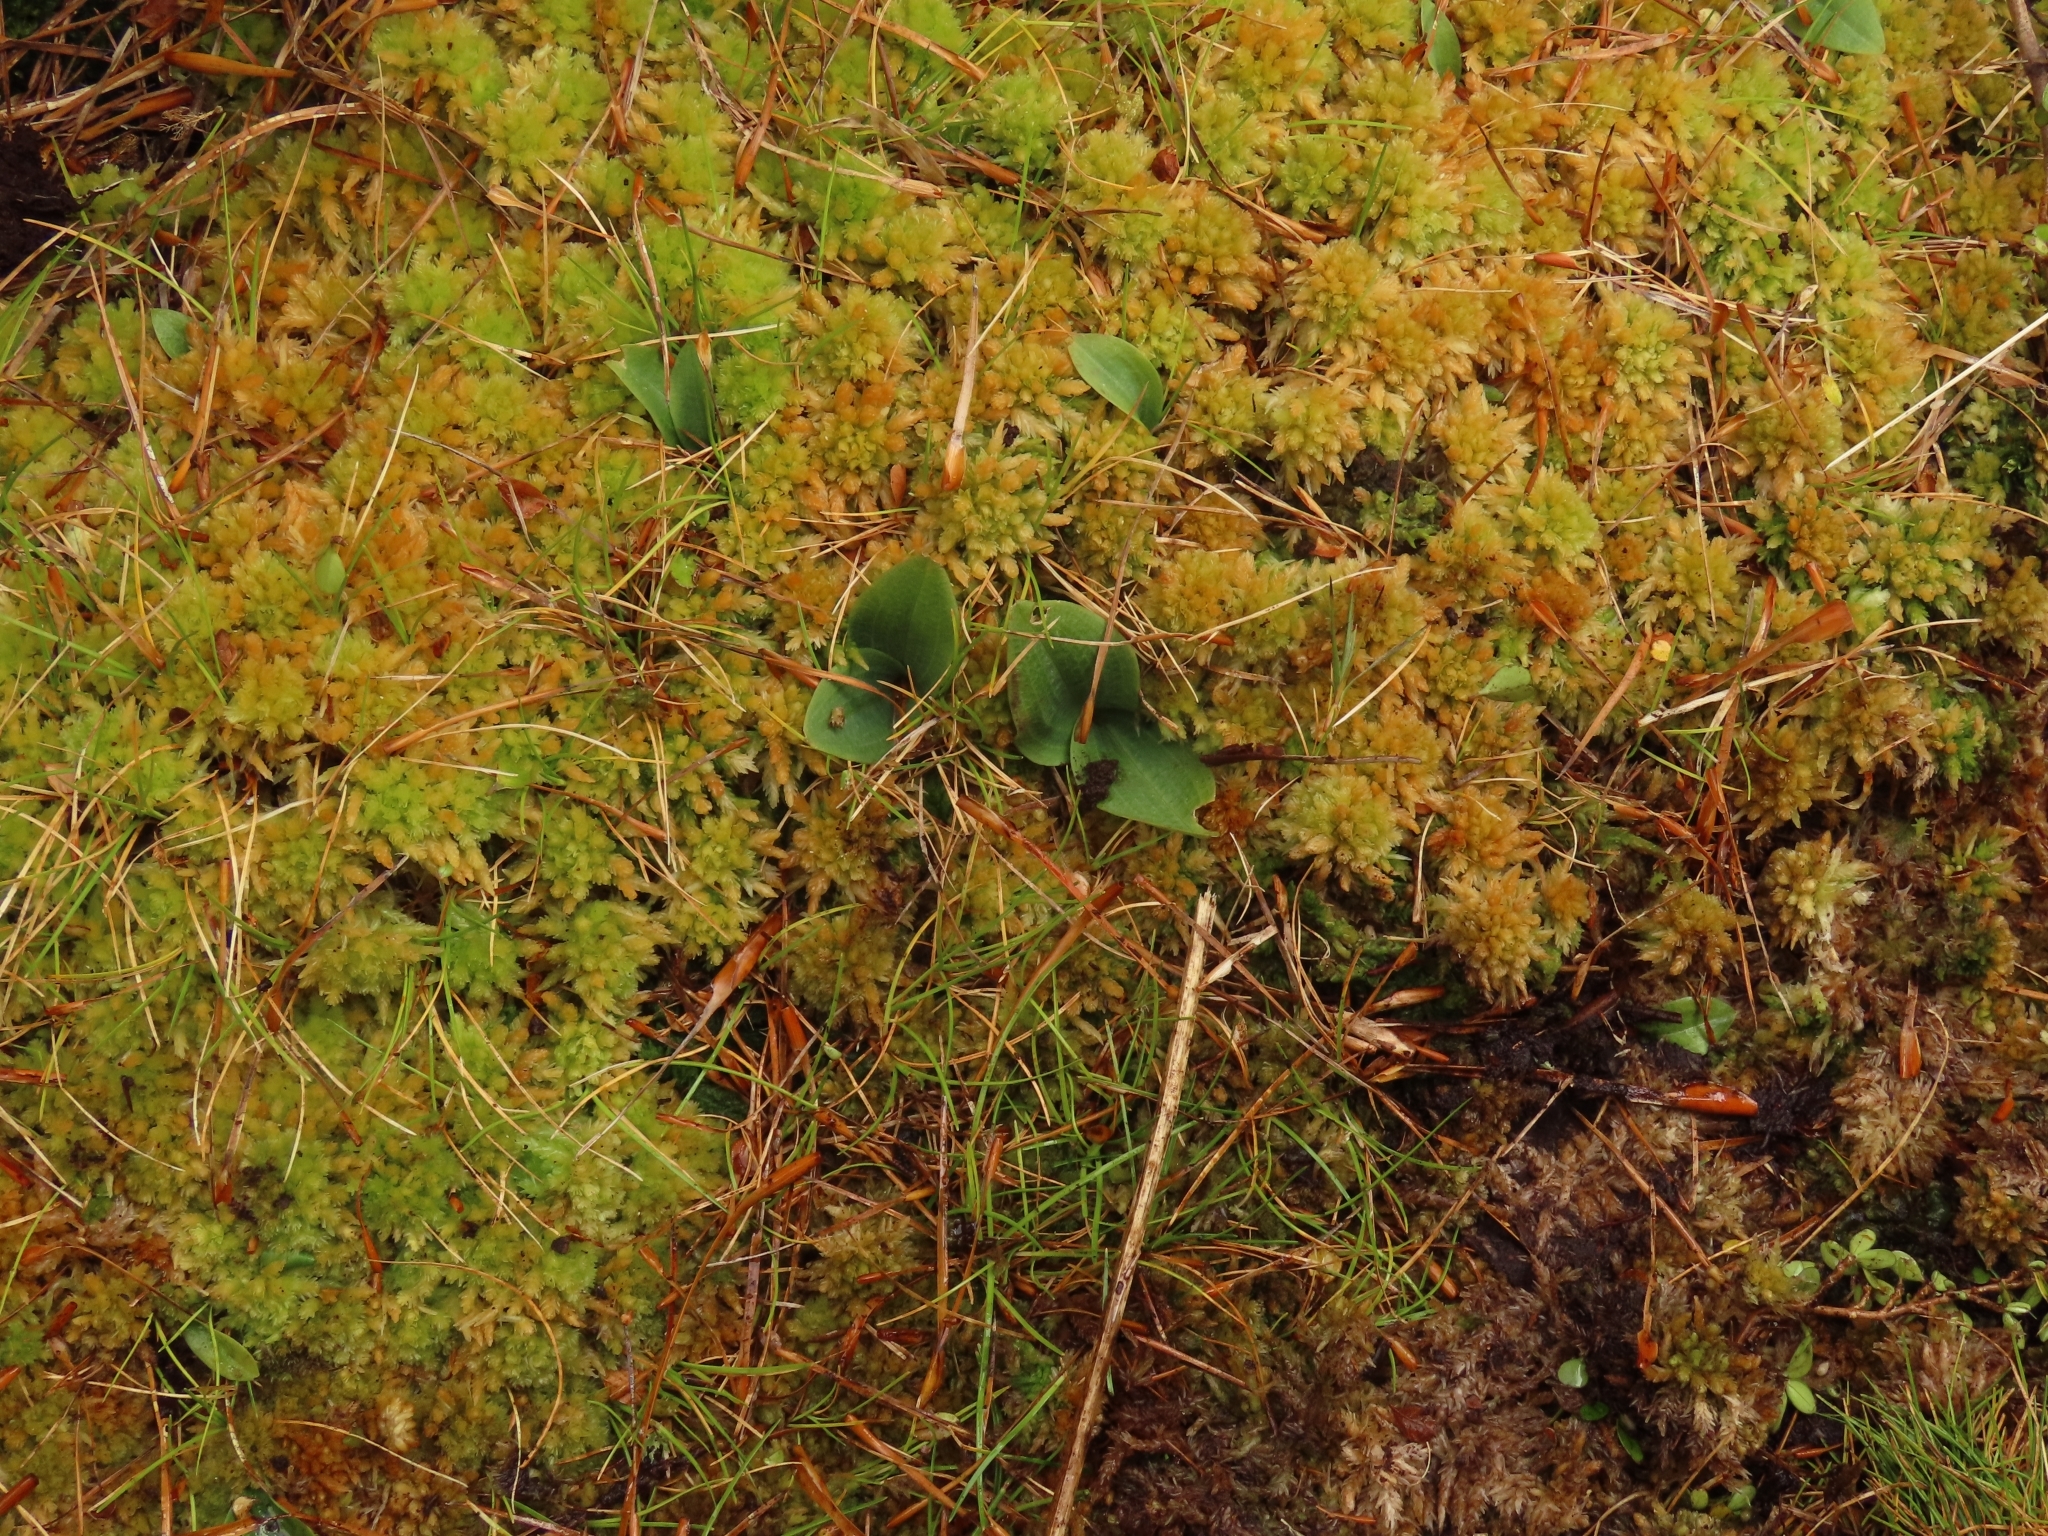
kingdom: Plantae
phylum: Tracheophyta
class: Liliopsida
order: Asparagales
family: Orchidaceae
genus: Chiloglottis
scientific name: Chiloglottis cornuta
